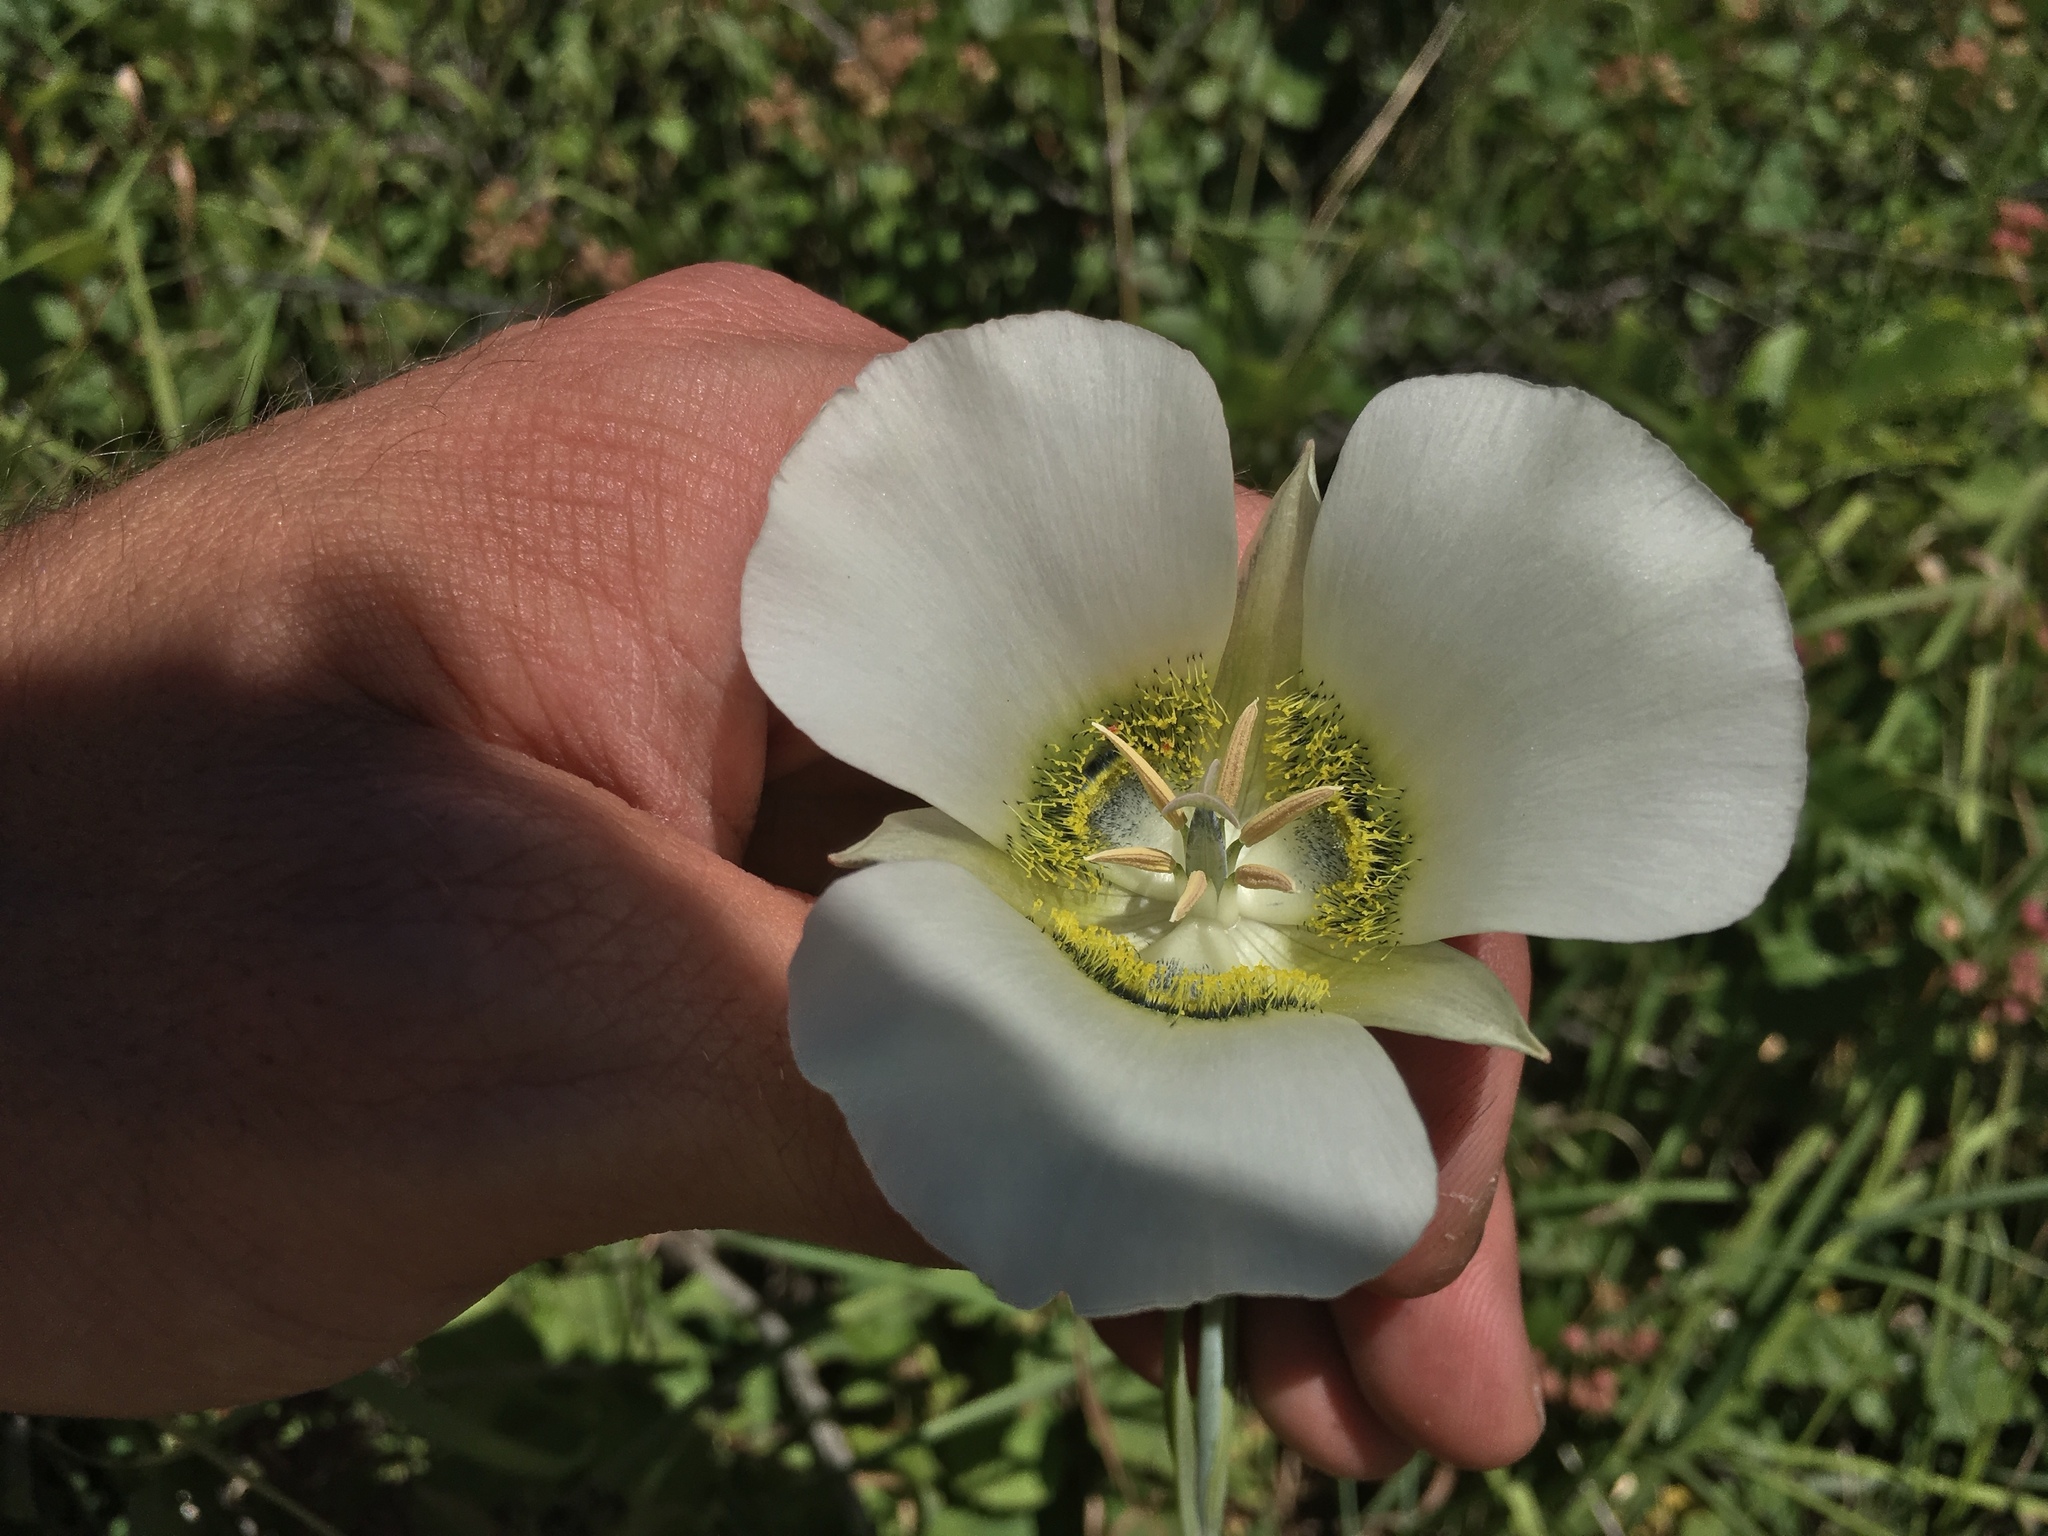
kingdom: Plantae
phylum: Tracheophyta
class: Liliopsida
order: Liliales
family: Liliaceae
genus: Calochortus
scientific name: Calochortus gunnisonii
